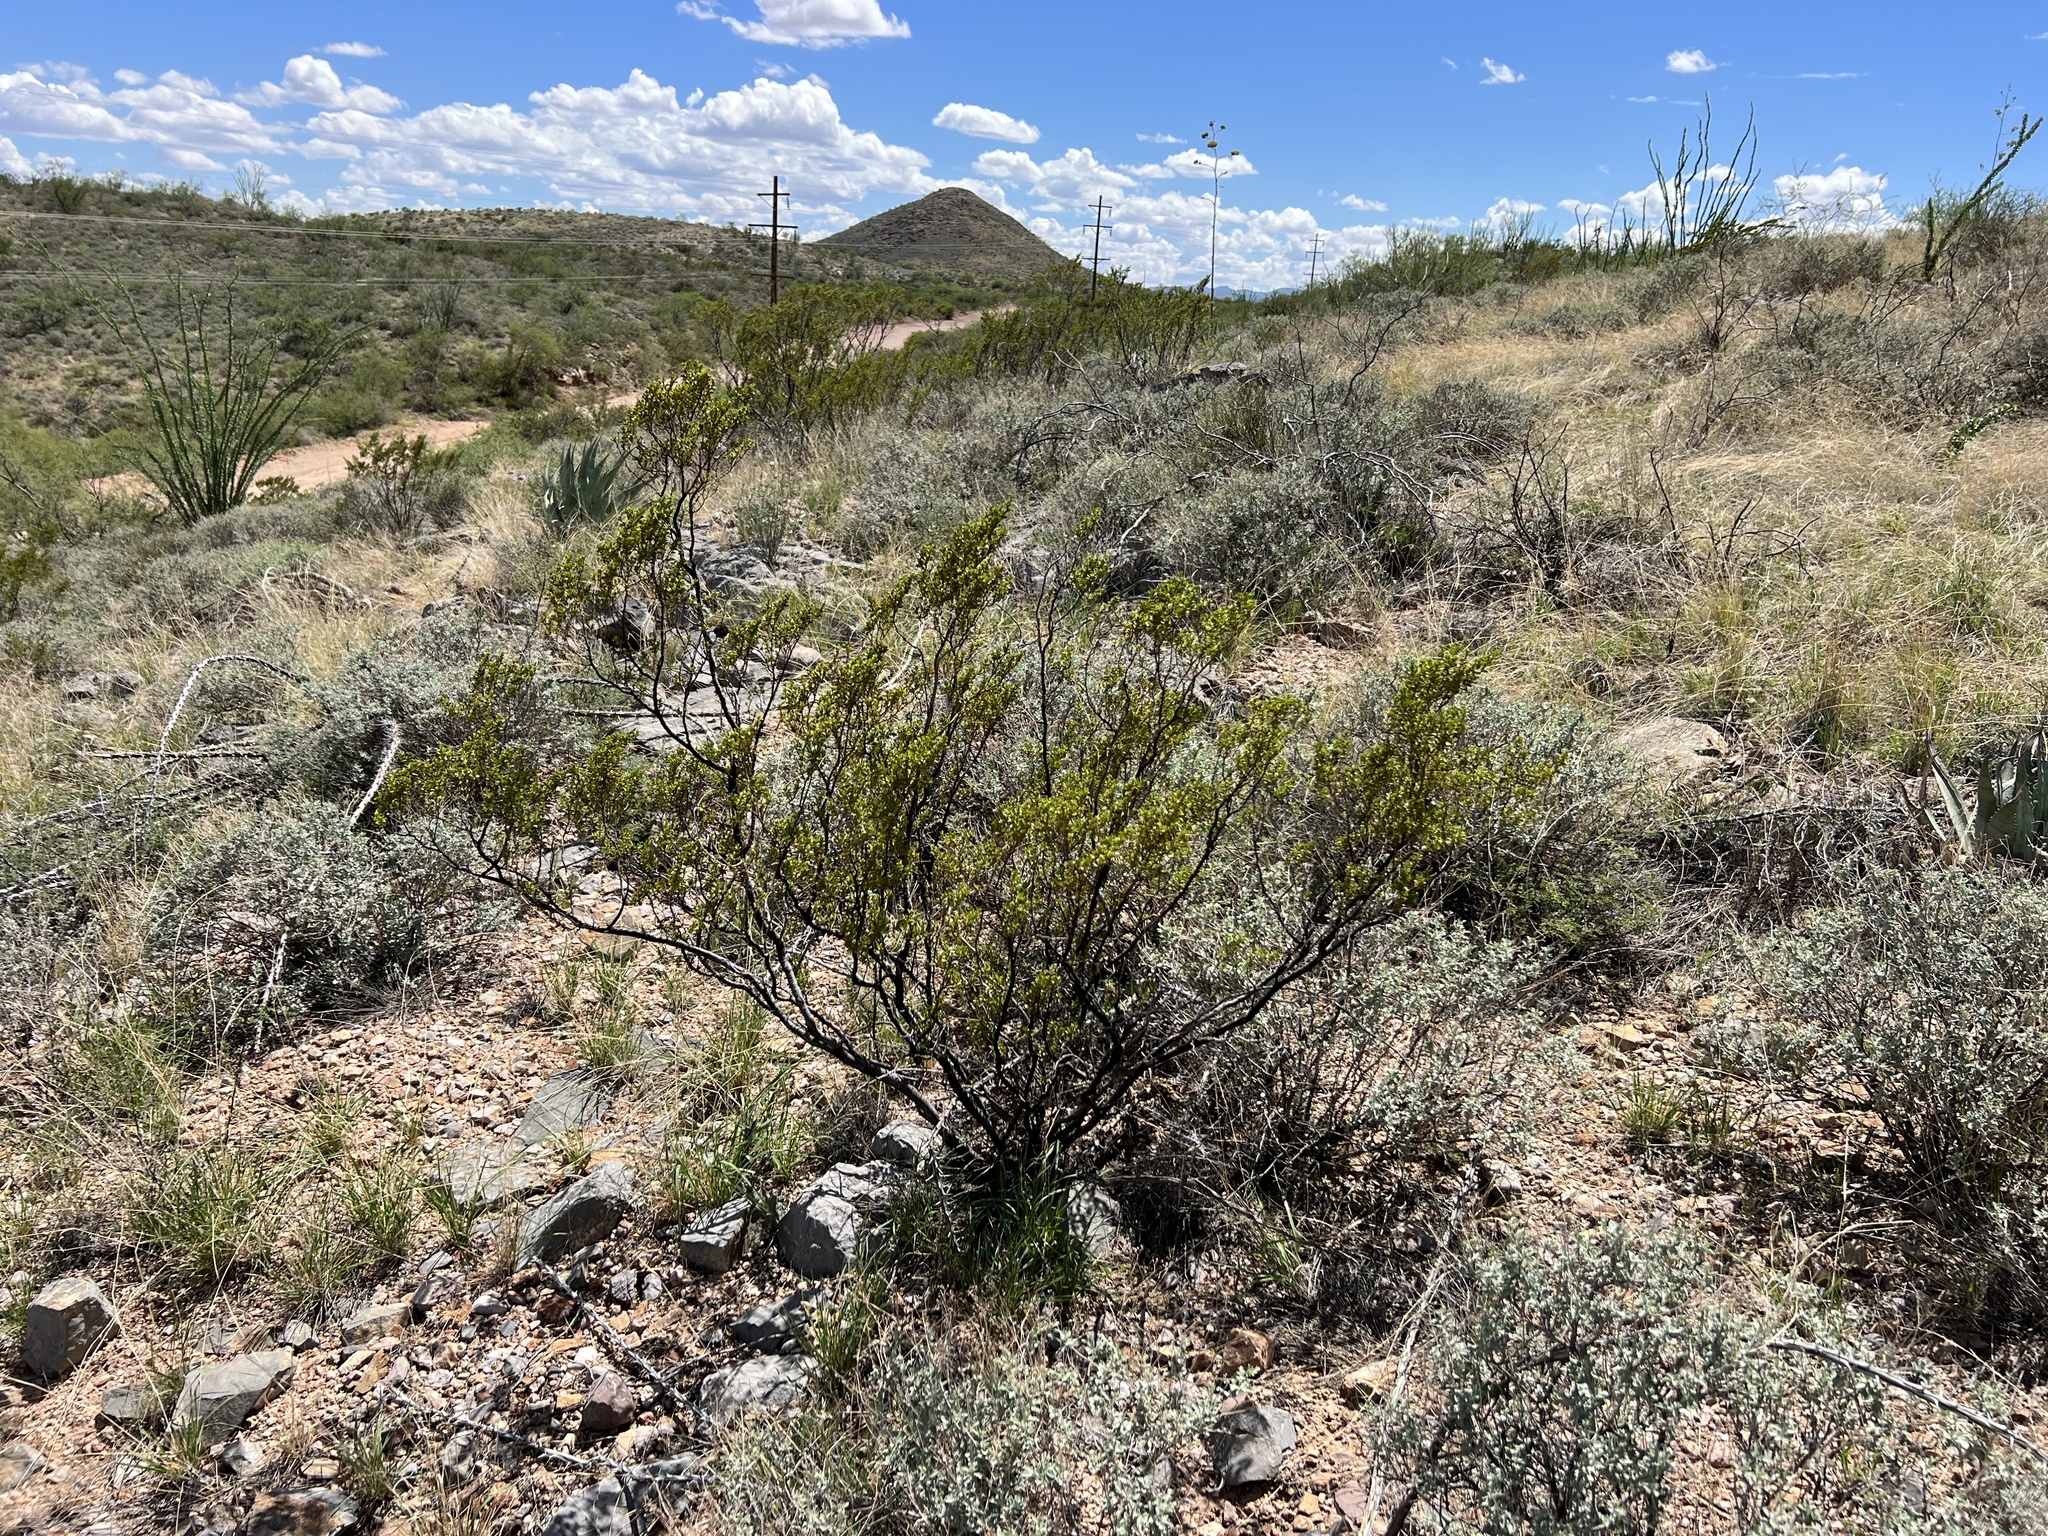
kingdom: Plantae
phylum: Tracheophyta
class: Magnoliopsida
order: Zygophyllales
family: Zygophyllaceae
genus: Larrea
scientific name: Larrea tridentata
